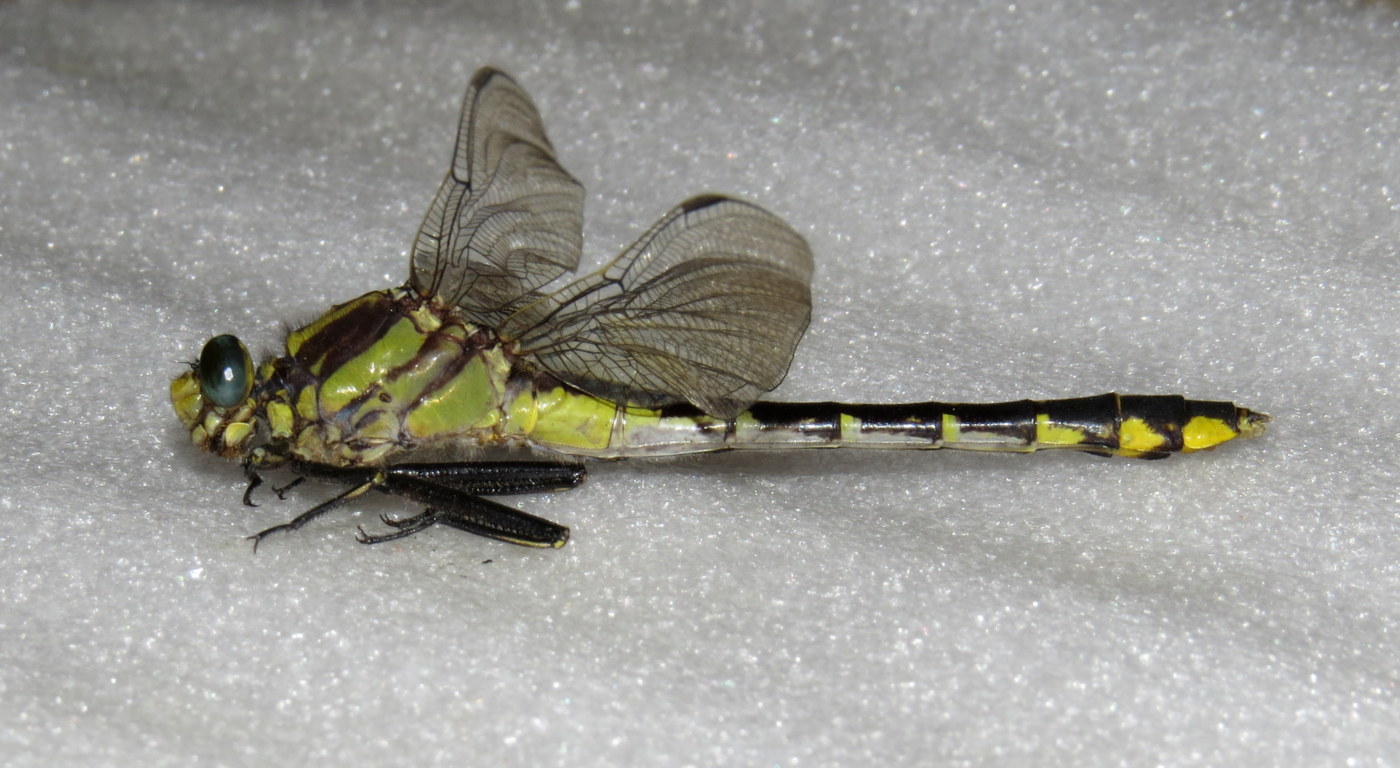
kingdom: Animalia
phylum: Arthropoda
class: Insecta
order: Odonata
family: Gomphidae
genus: Gomphurus
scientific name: Gomphurus fraternus
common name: Midland clubtail
